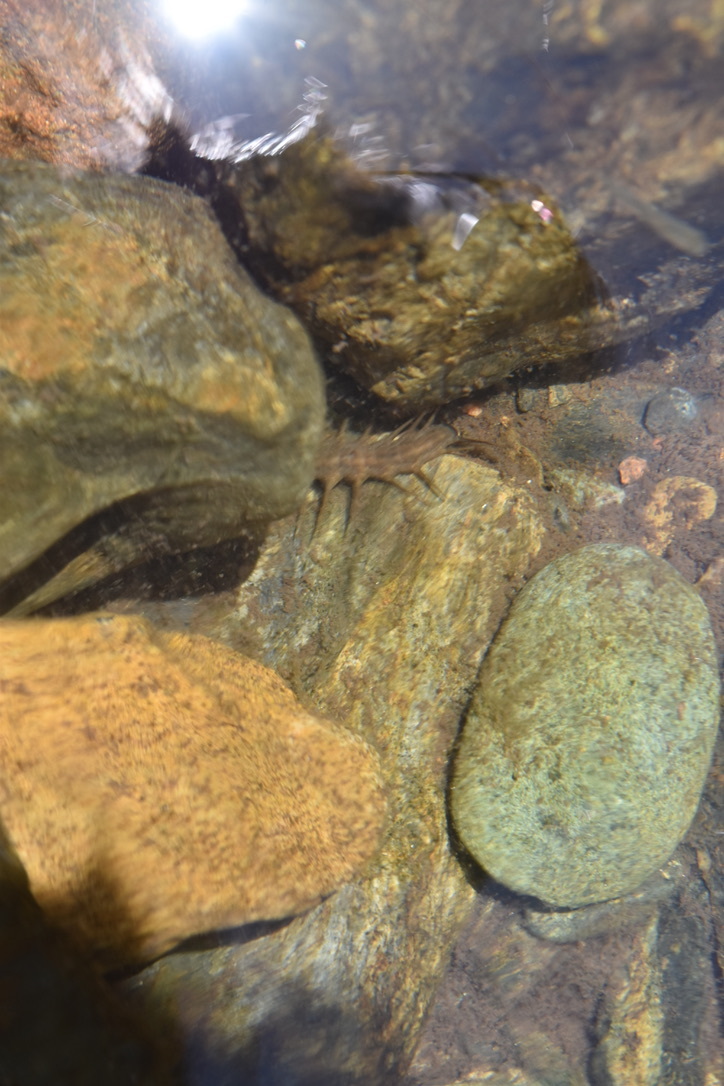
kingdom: Animalia
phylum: Arthropoda
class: Insecta
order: Megaloptera
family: Corydalidae
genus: Neohermes
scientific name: Neohermes californicus
